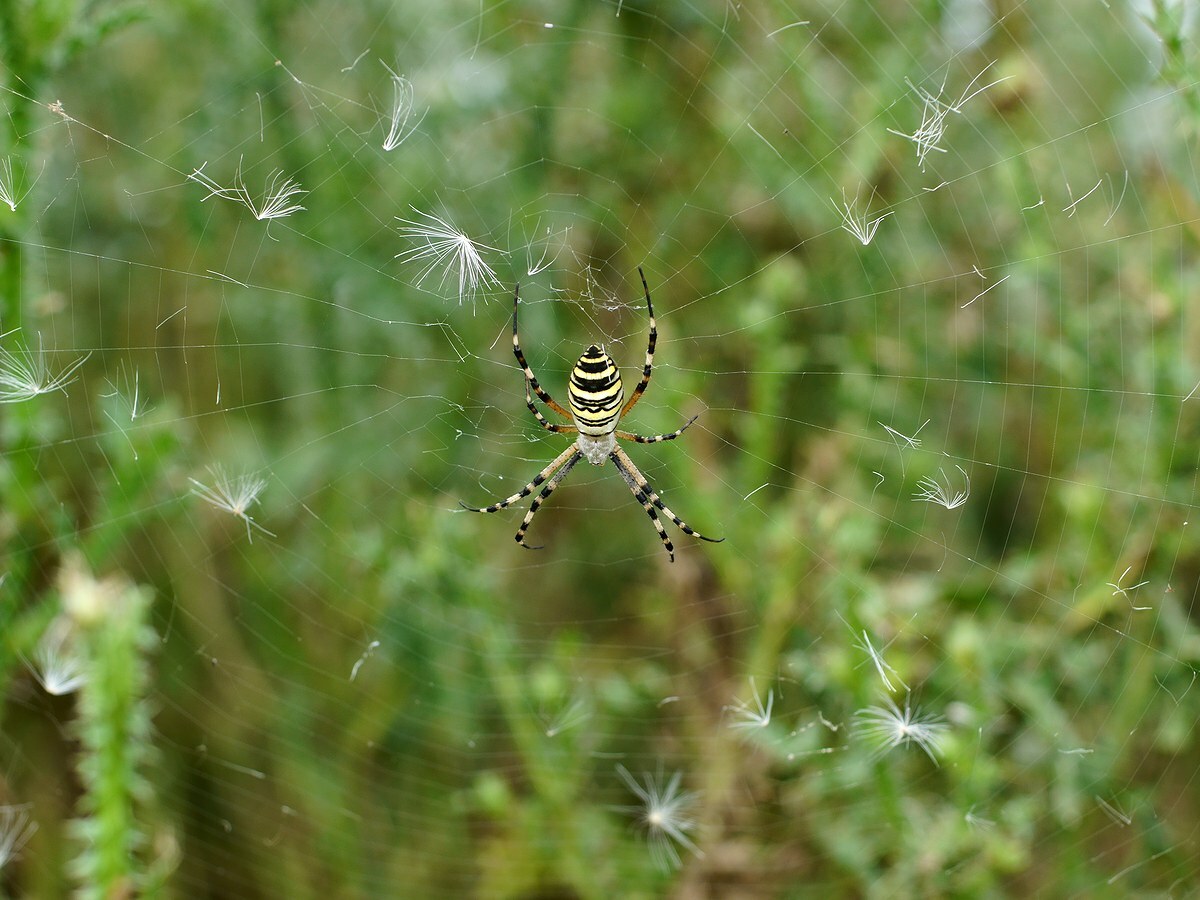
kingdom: Animalia
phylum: Arthropoda
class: Arachnida
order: Araneae
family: Araneidae
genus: Argiope
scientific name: Argiope bruennichi
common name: Wasp spider
